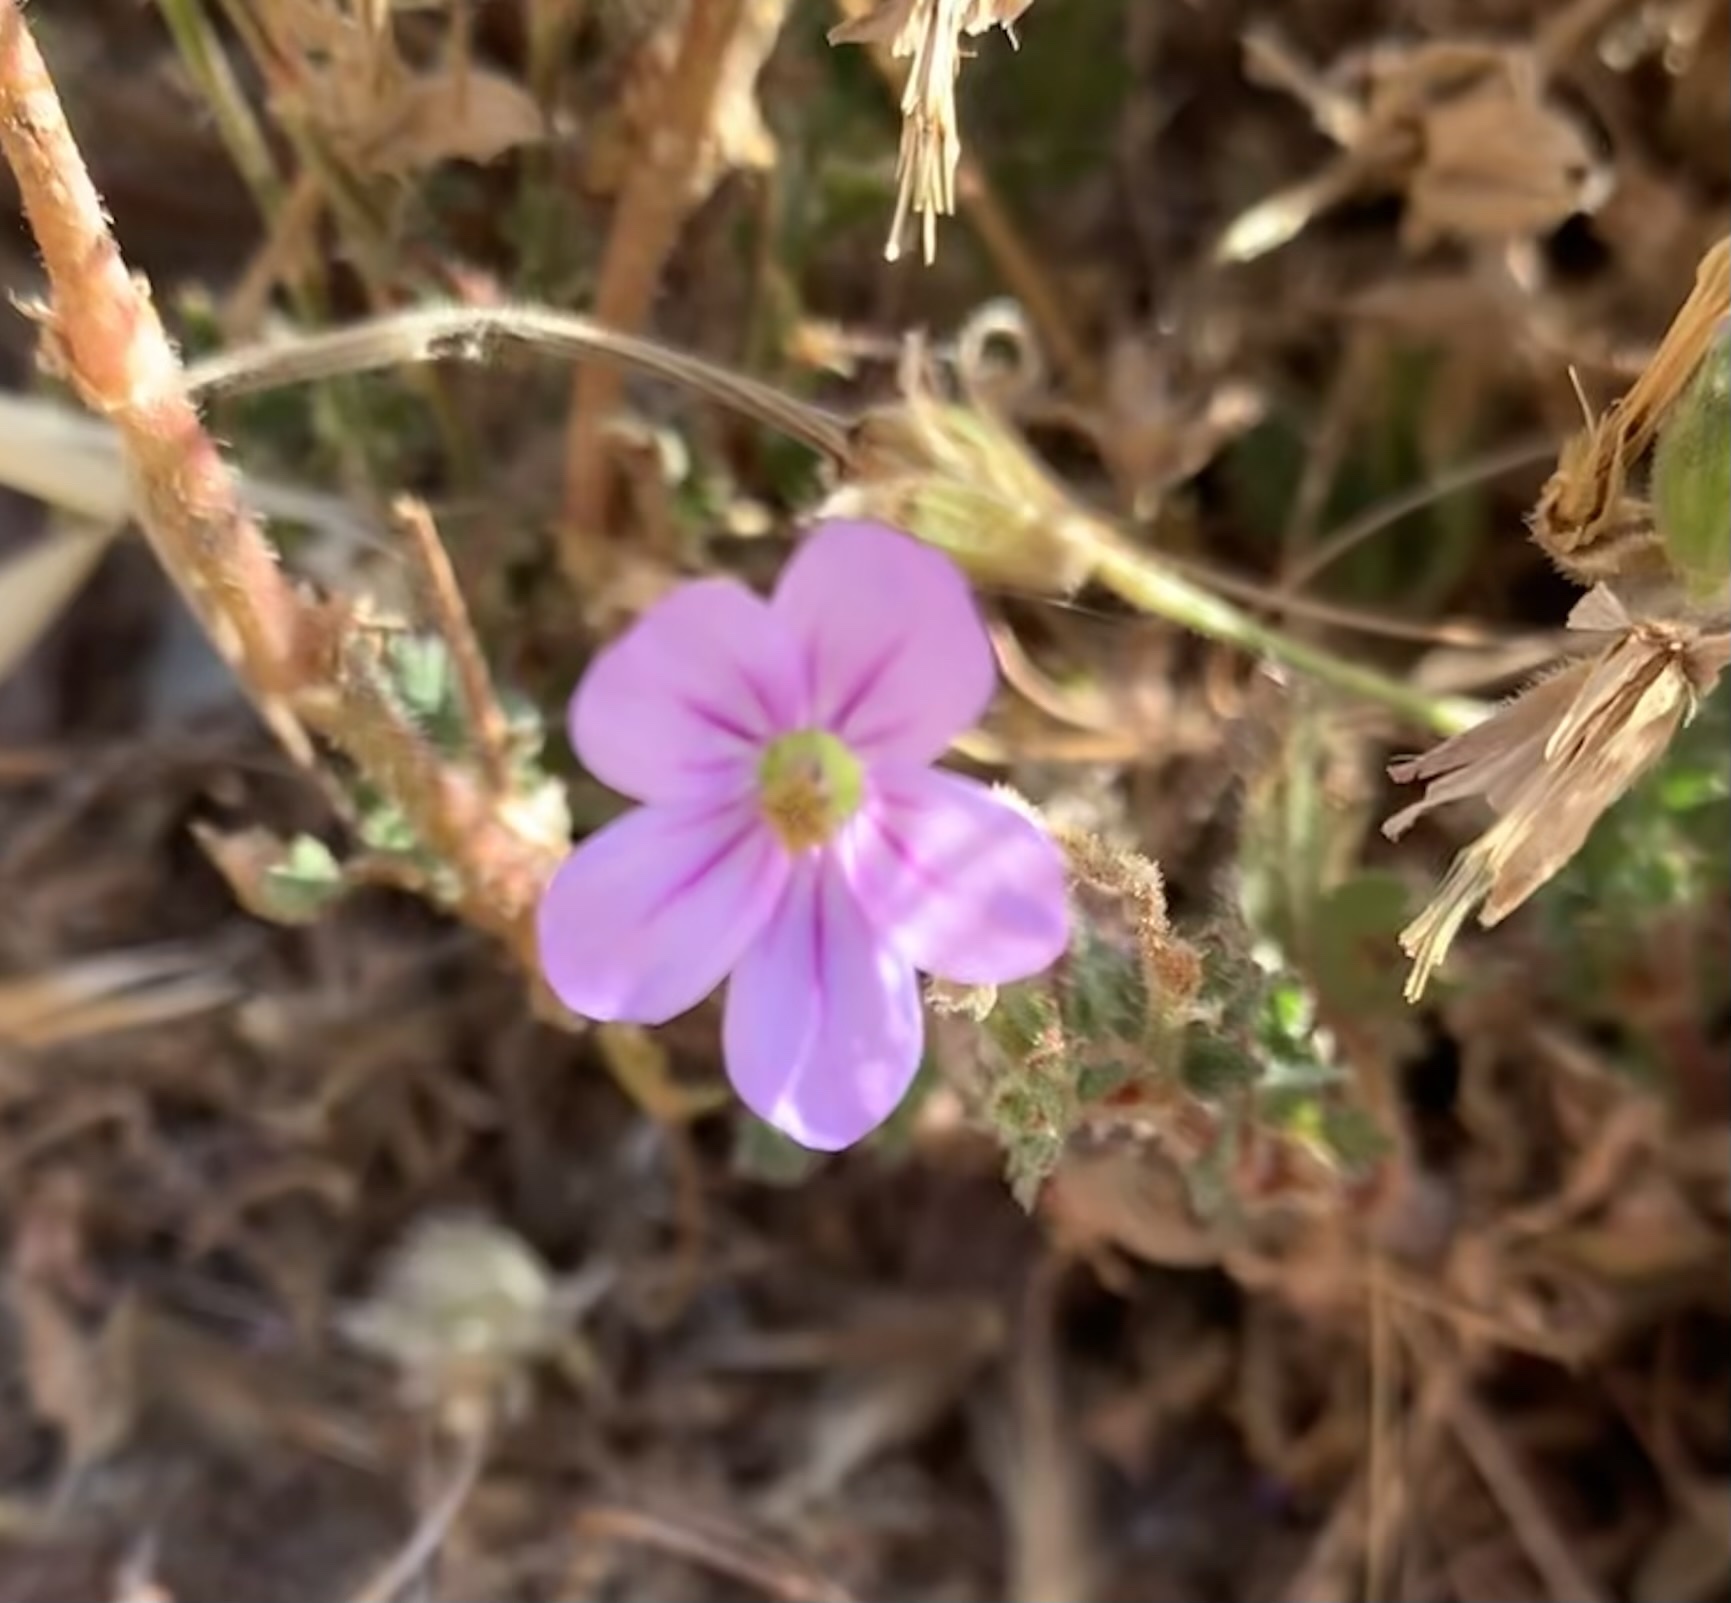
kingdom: Plantae
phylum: Tracheophyta
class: Magnoliopsida
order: Geraniales
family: Geraniaceae
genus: Erodium
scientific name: Erodium botrys
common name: Mediterranean stork's-bill
